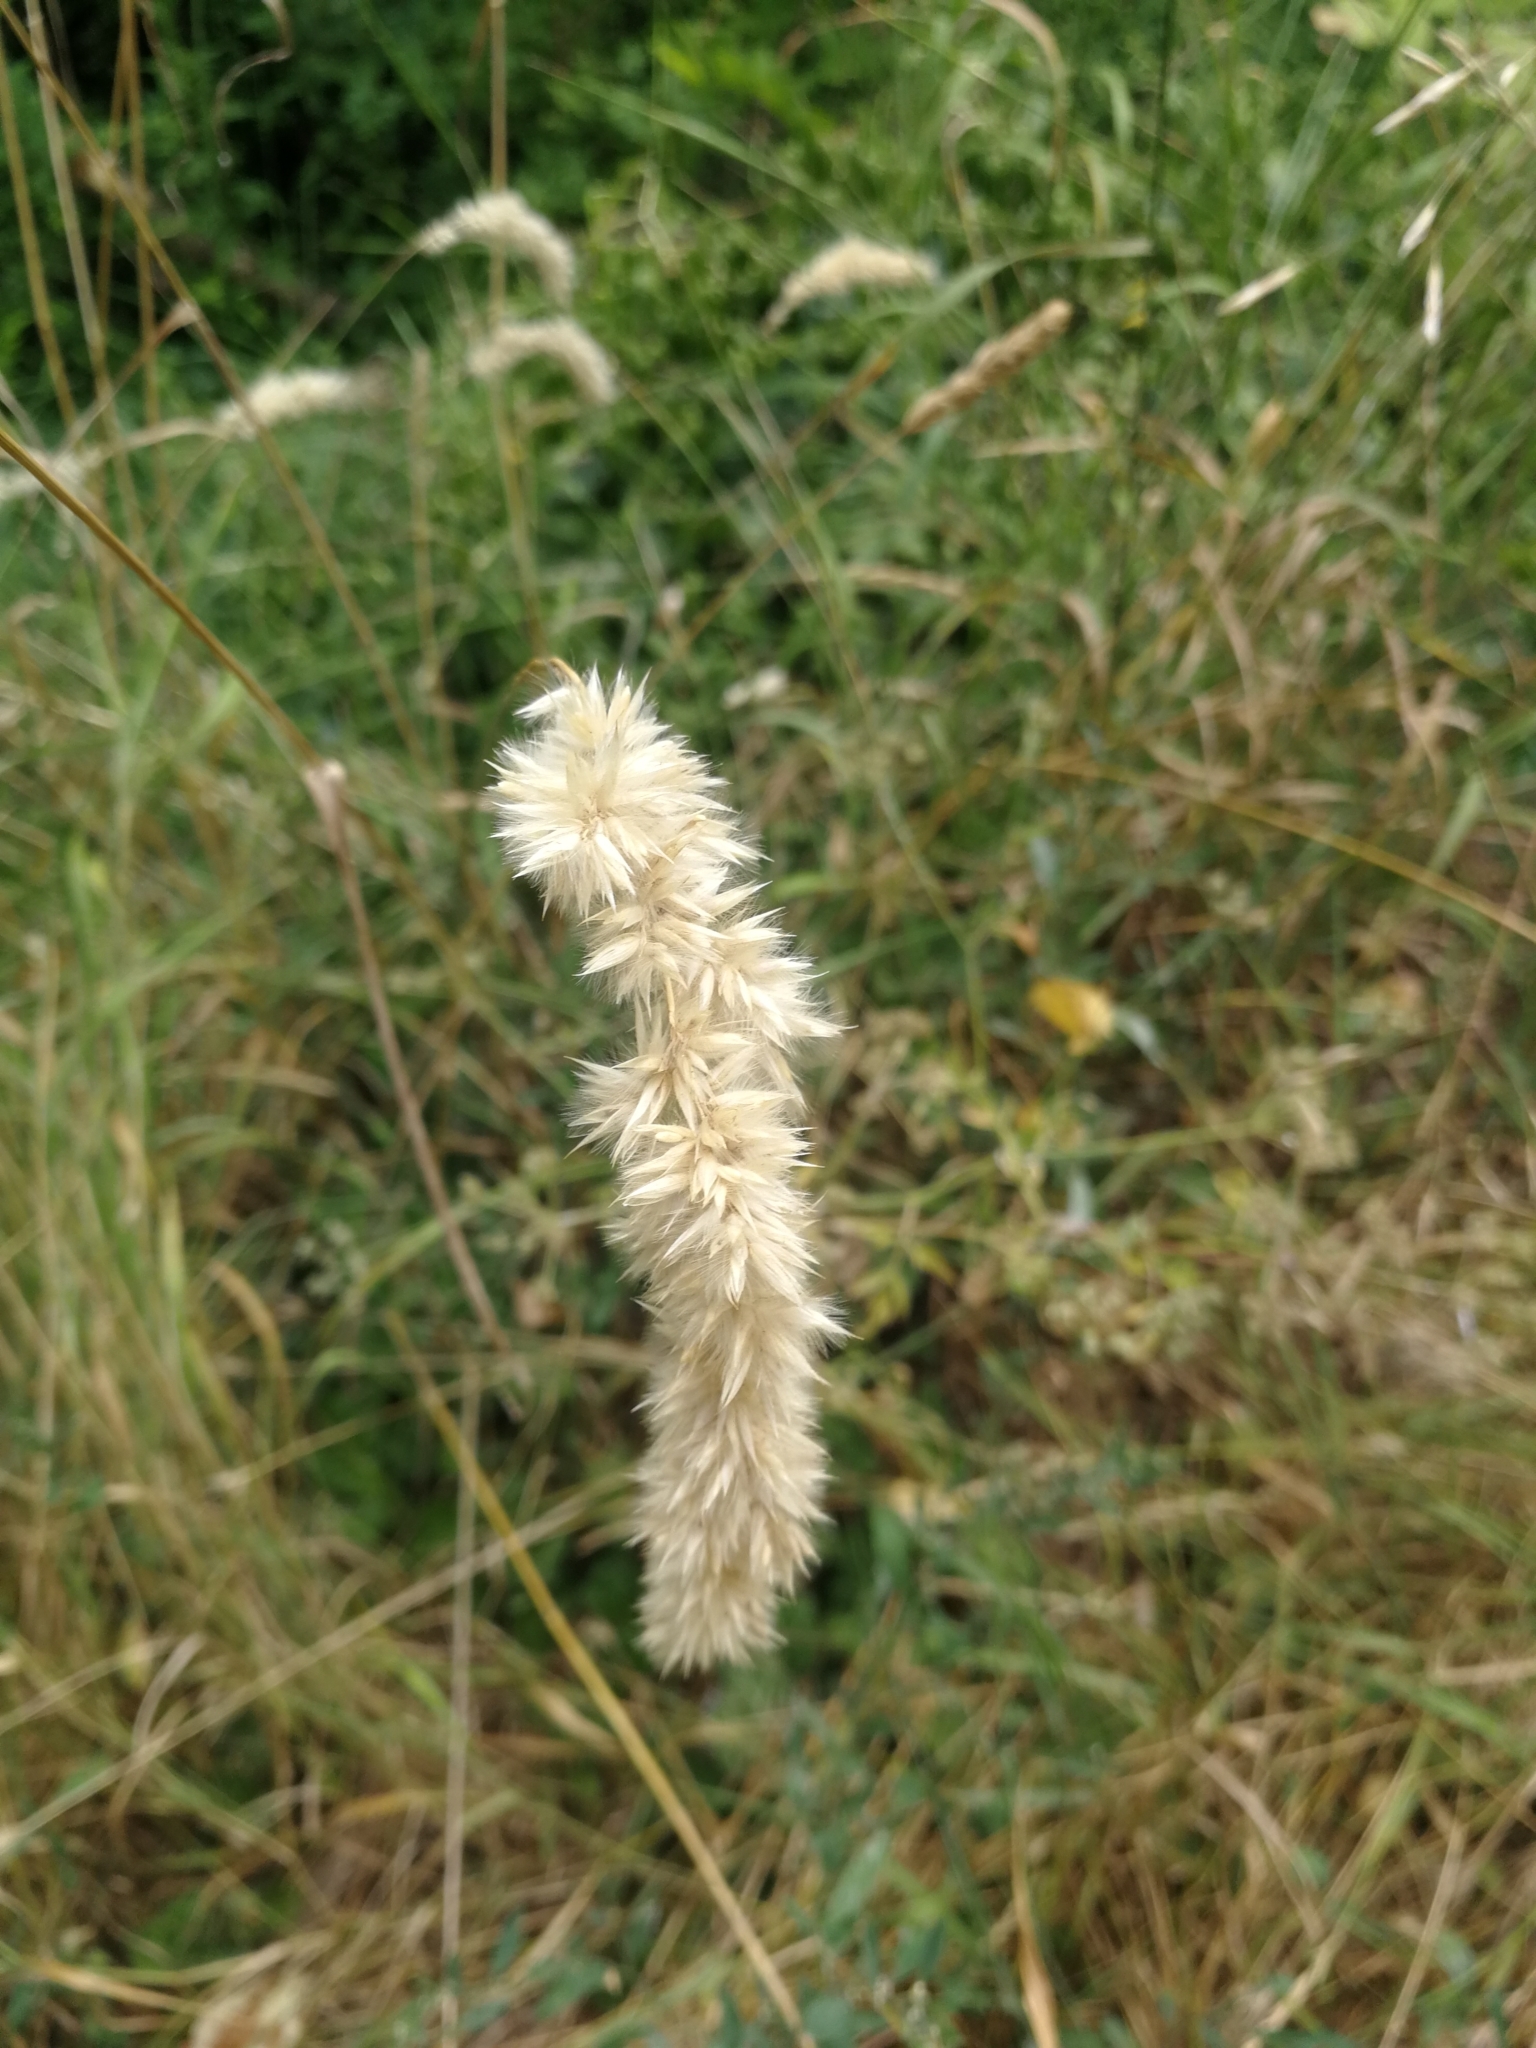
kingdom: Plantae
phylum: Tracheophyta
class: Liliopsida
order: Poales
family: Poaceae
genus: Melica
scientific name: Melica transsilvanica
